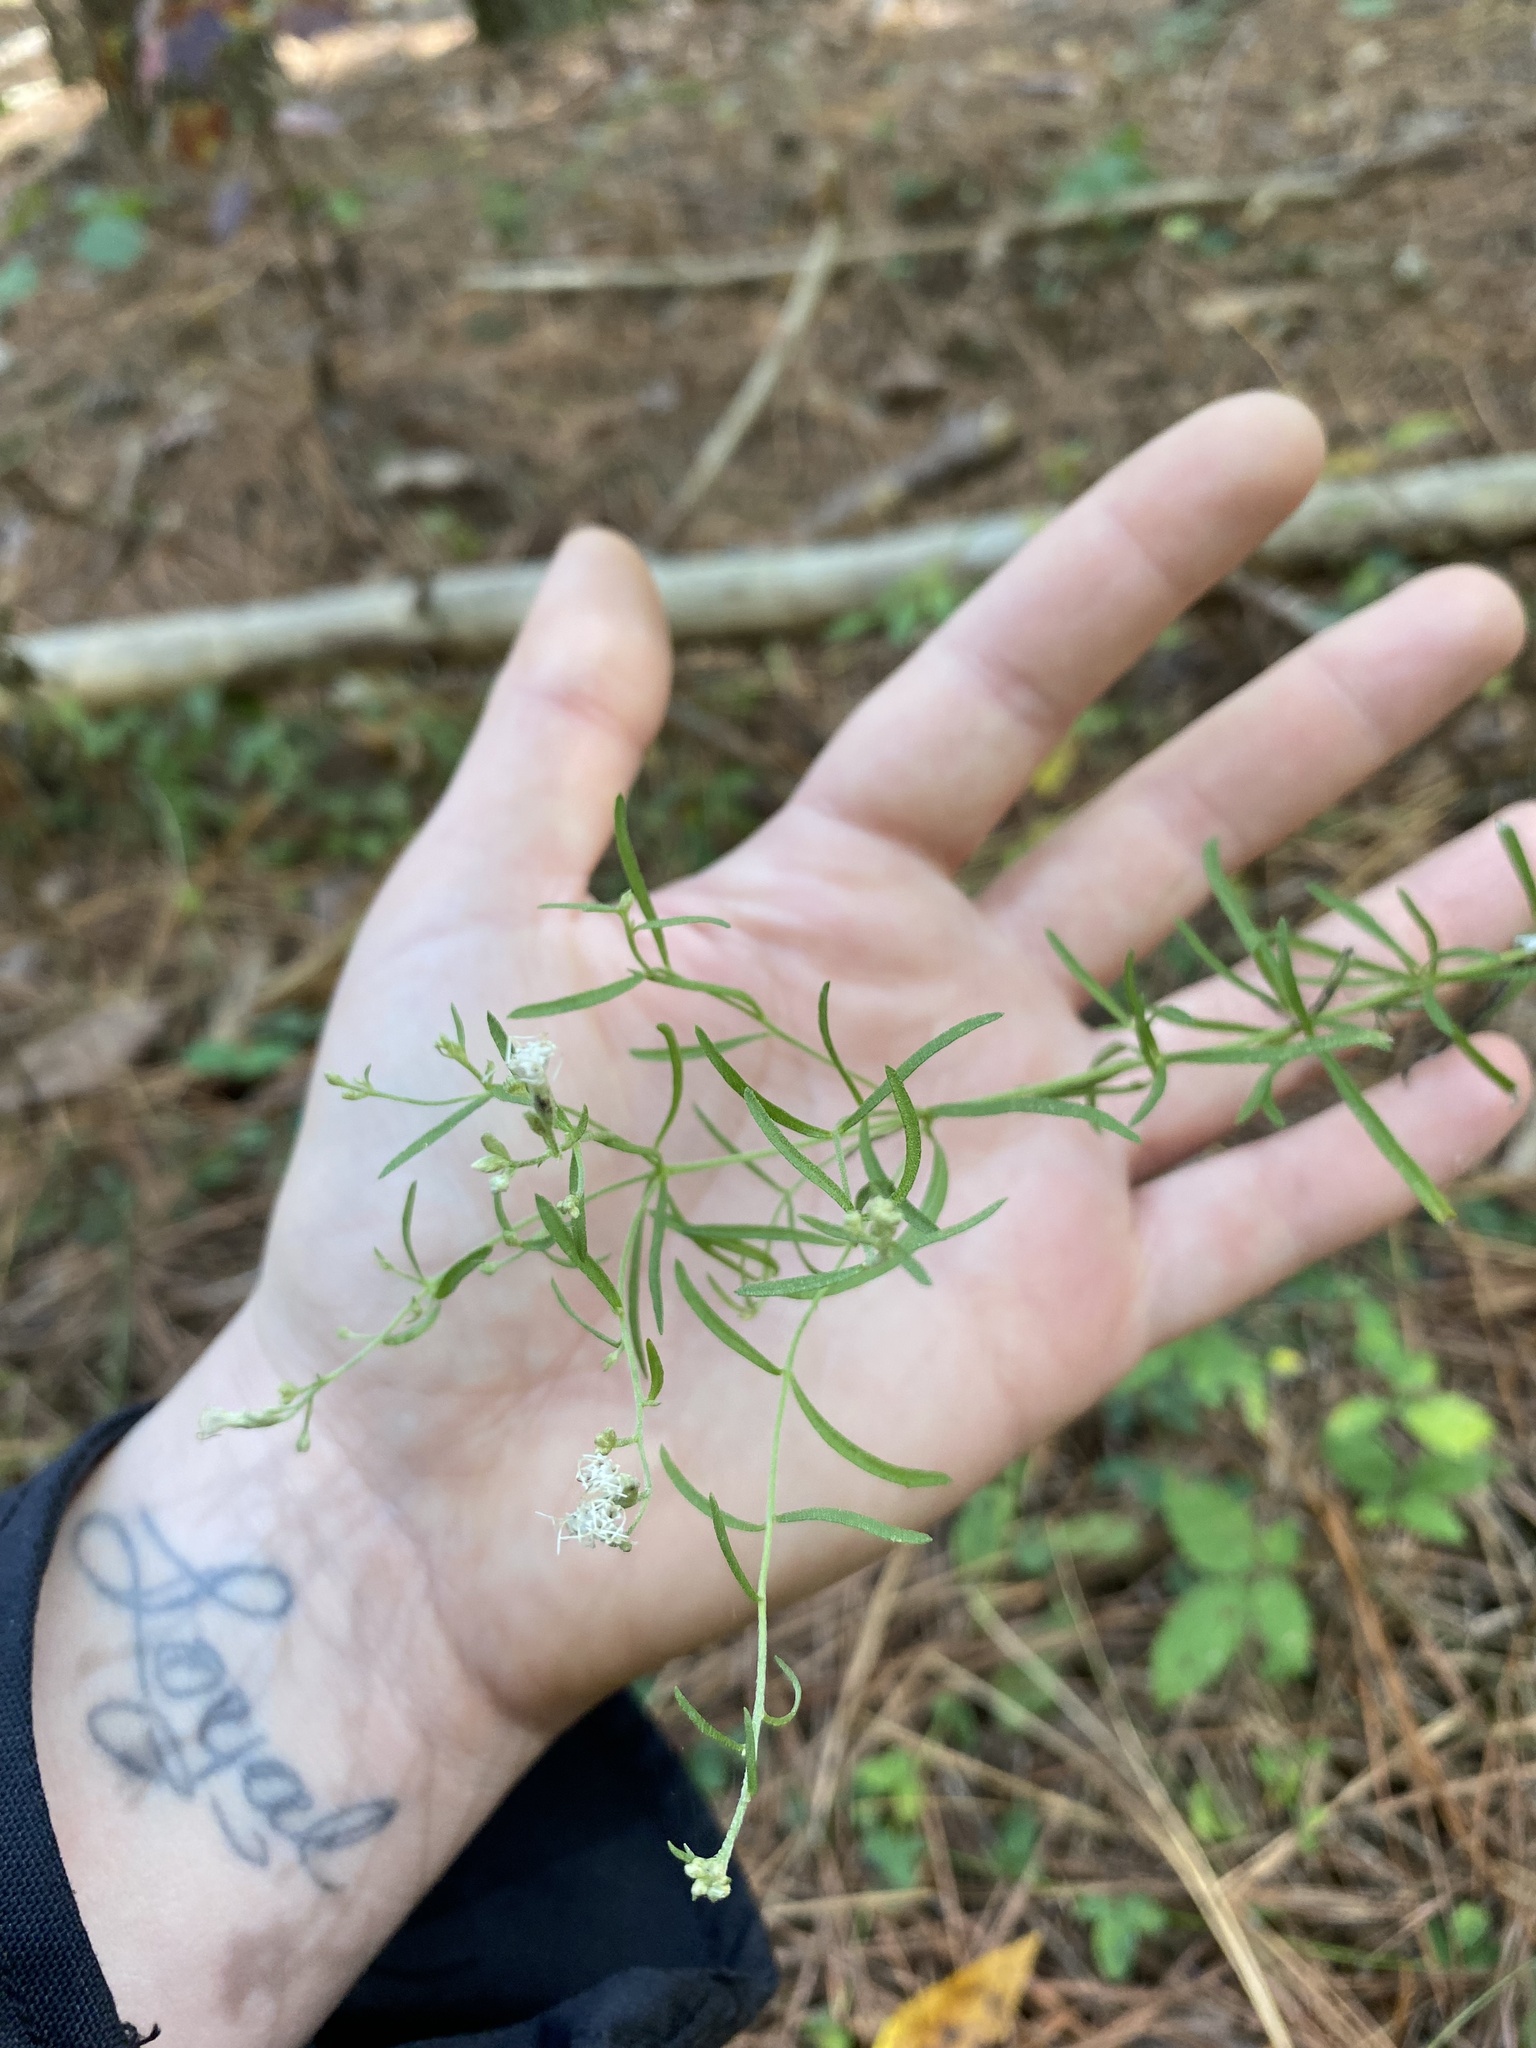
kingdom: Plantae
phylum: Tracheophyta
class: Magnoliopsida
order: Asterales
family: Asteraceae
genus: Eupatorium
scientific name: Eupatorium hyssopifolium
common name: Hyssop-leaf thoroughwort
